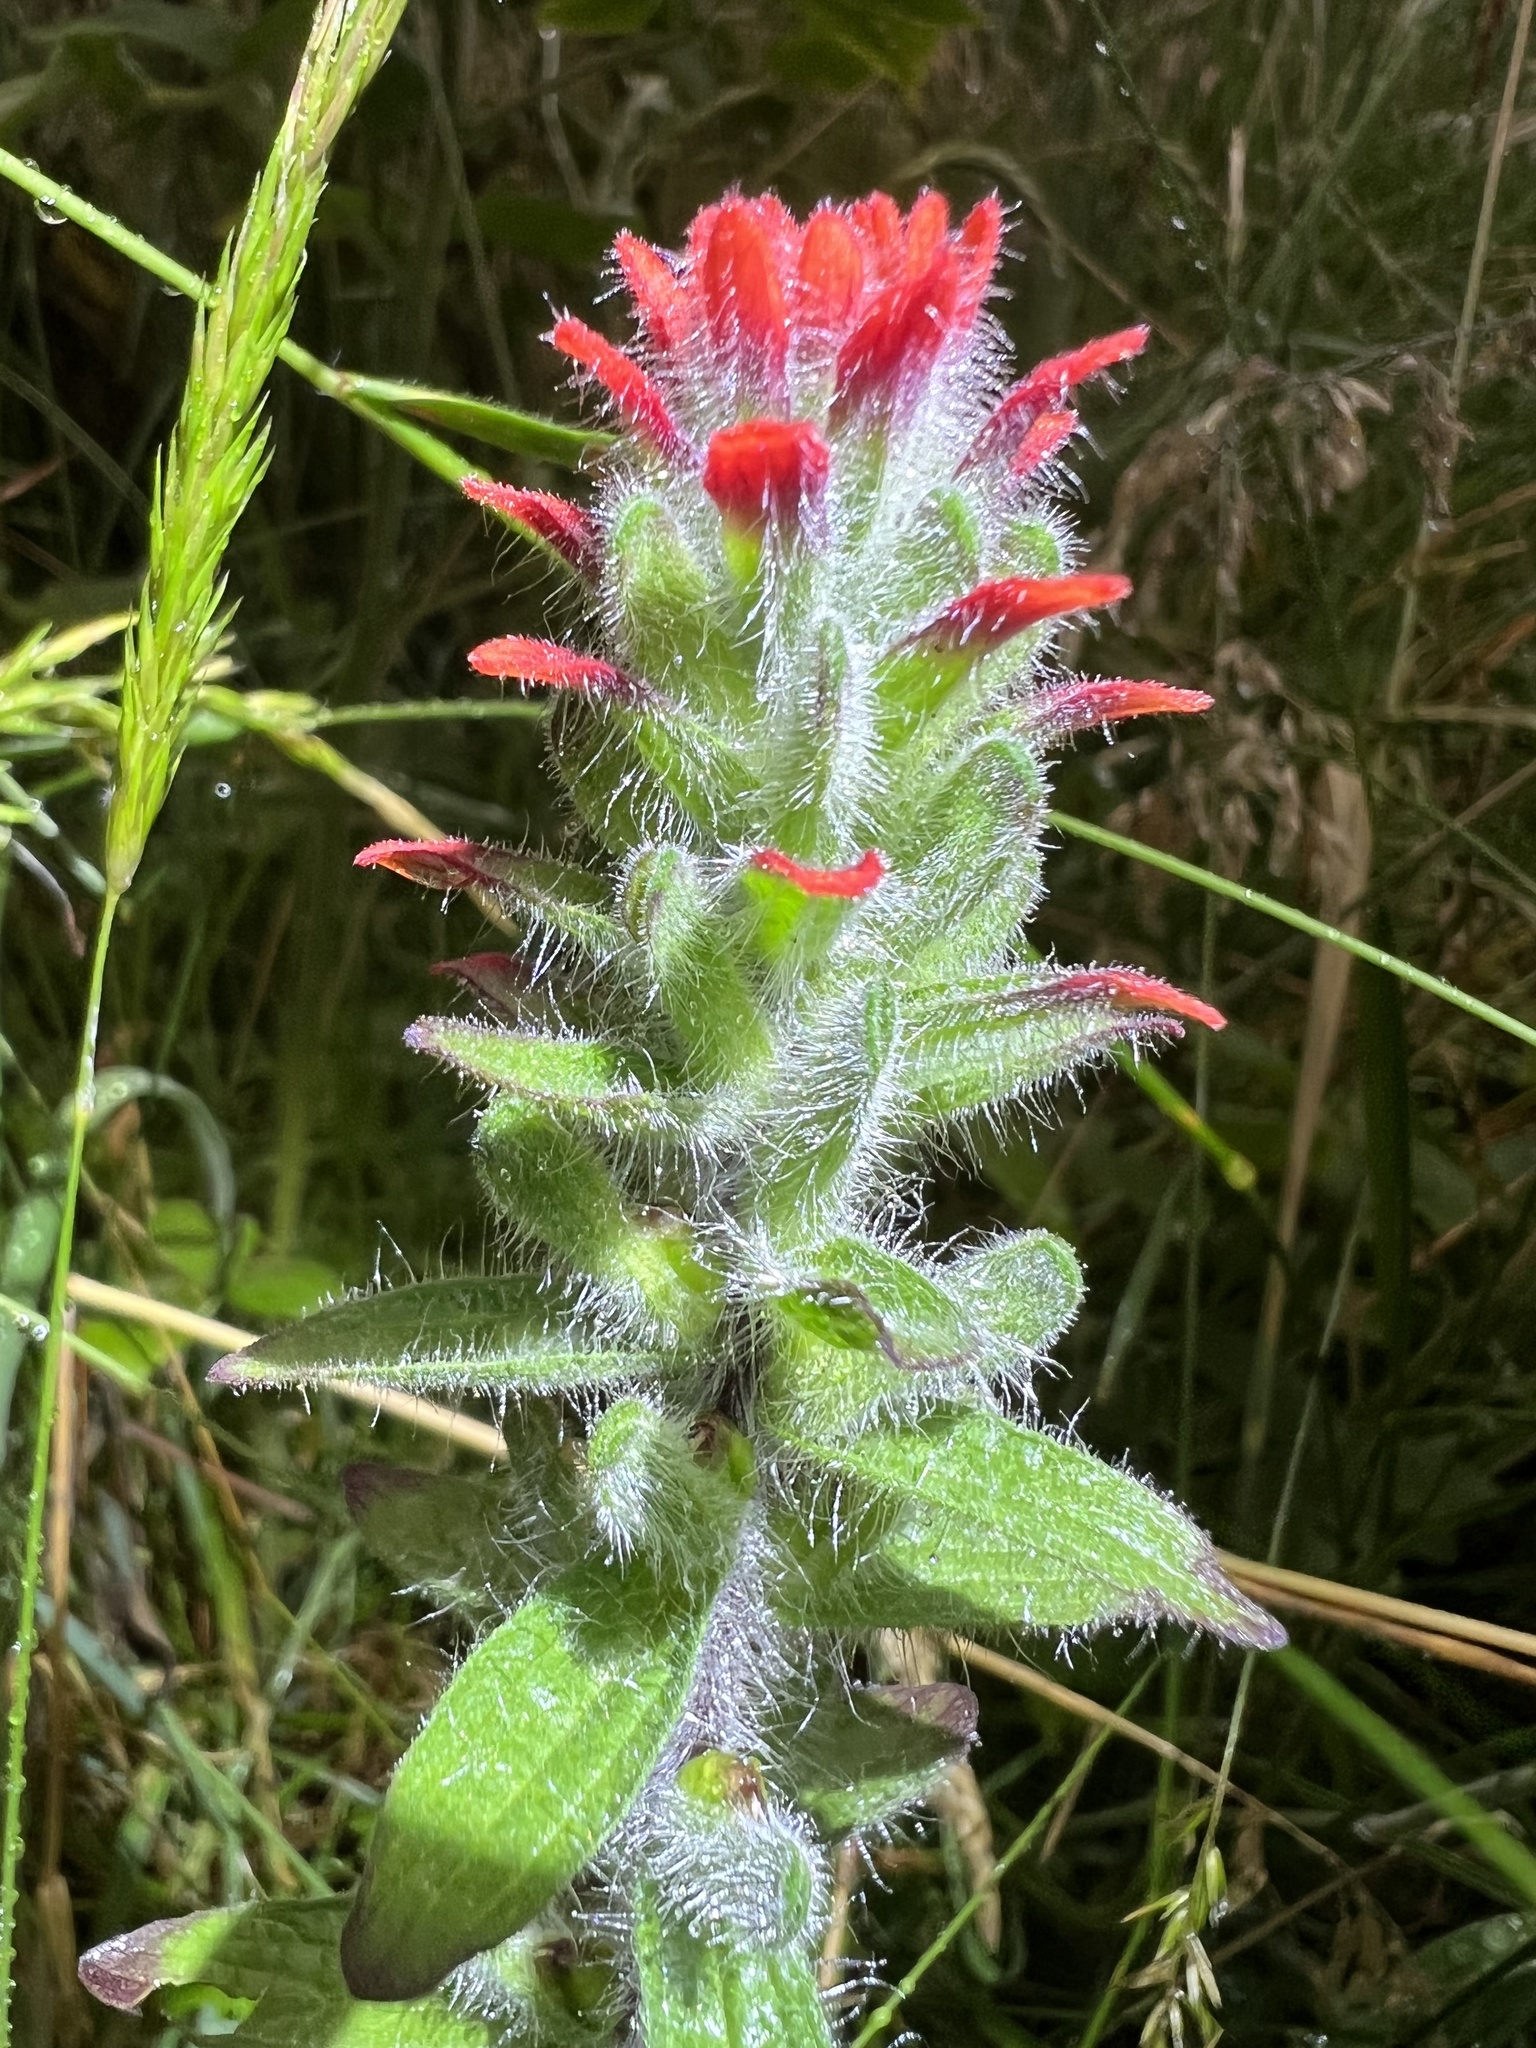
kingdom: Plantae
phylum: Tracheophyta
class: Magnoliopsida
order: Lamiales
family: Orobanchaceae
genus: Castilleja
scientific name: Castilleja arvensis
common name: Indian paintbrush
